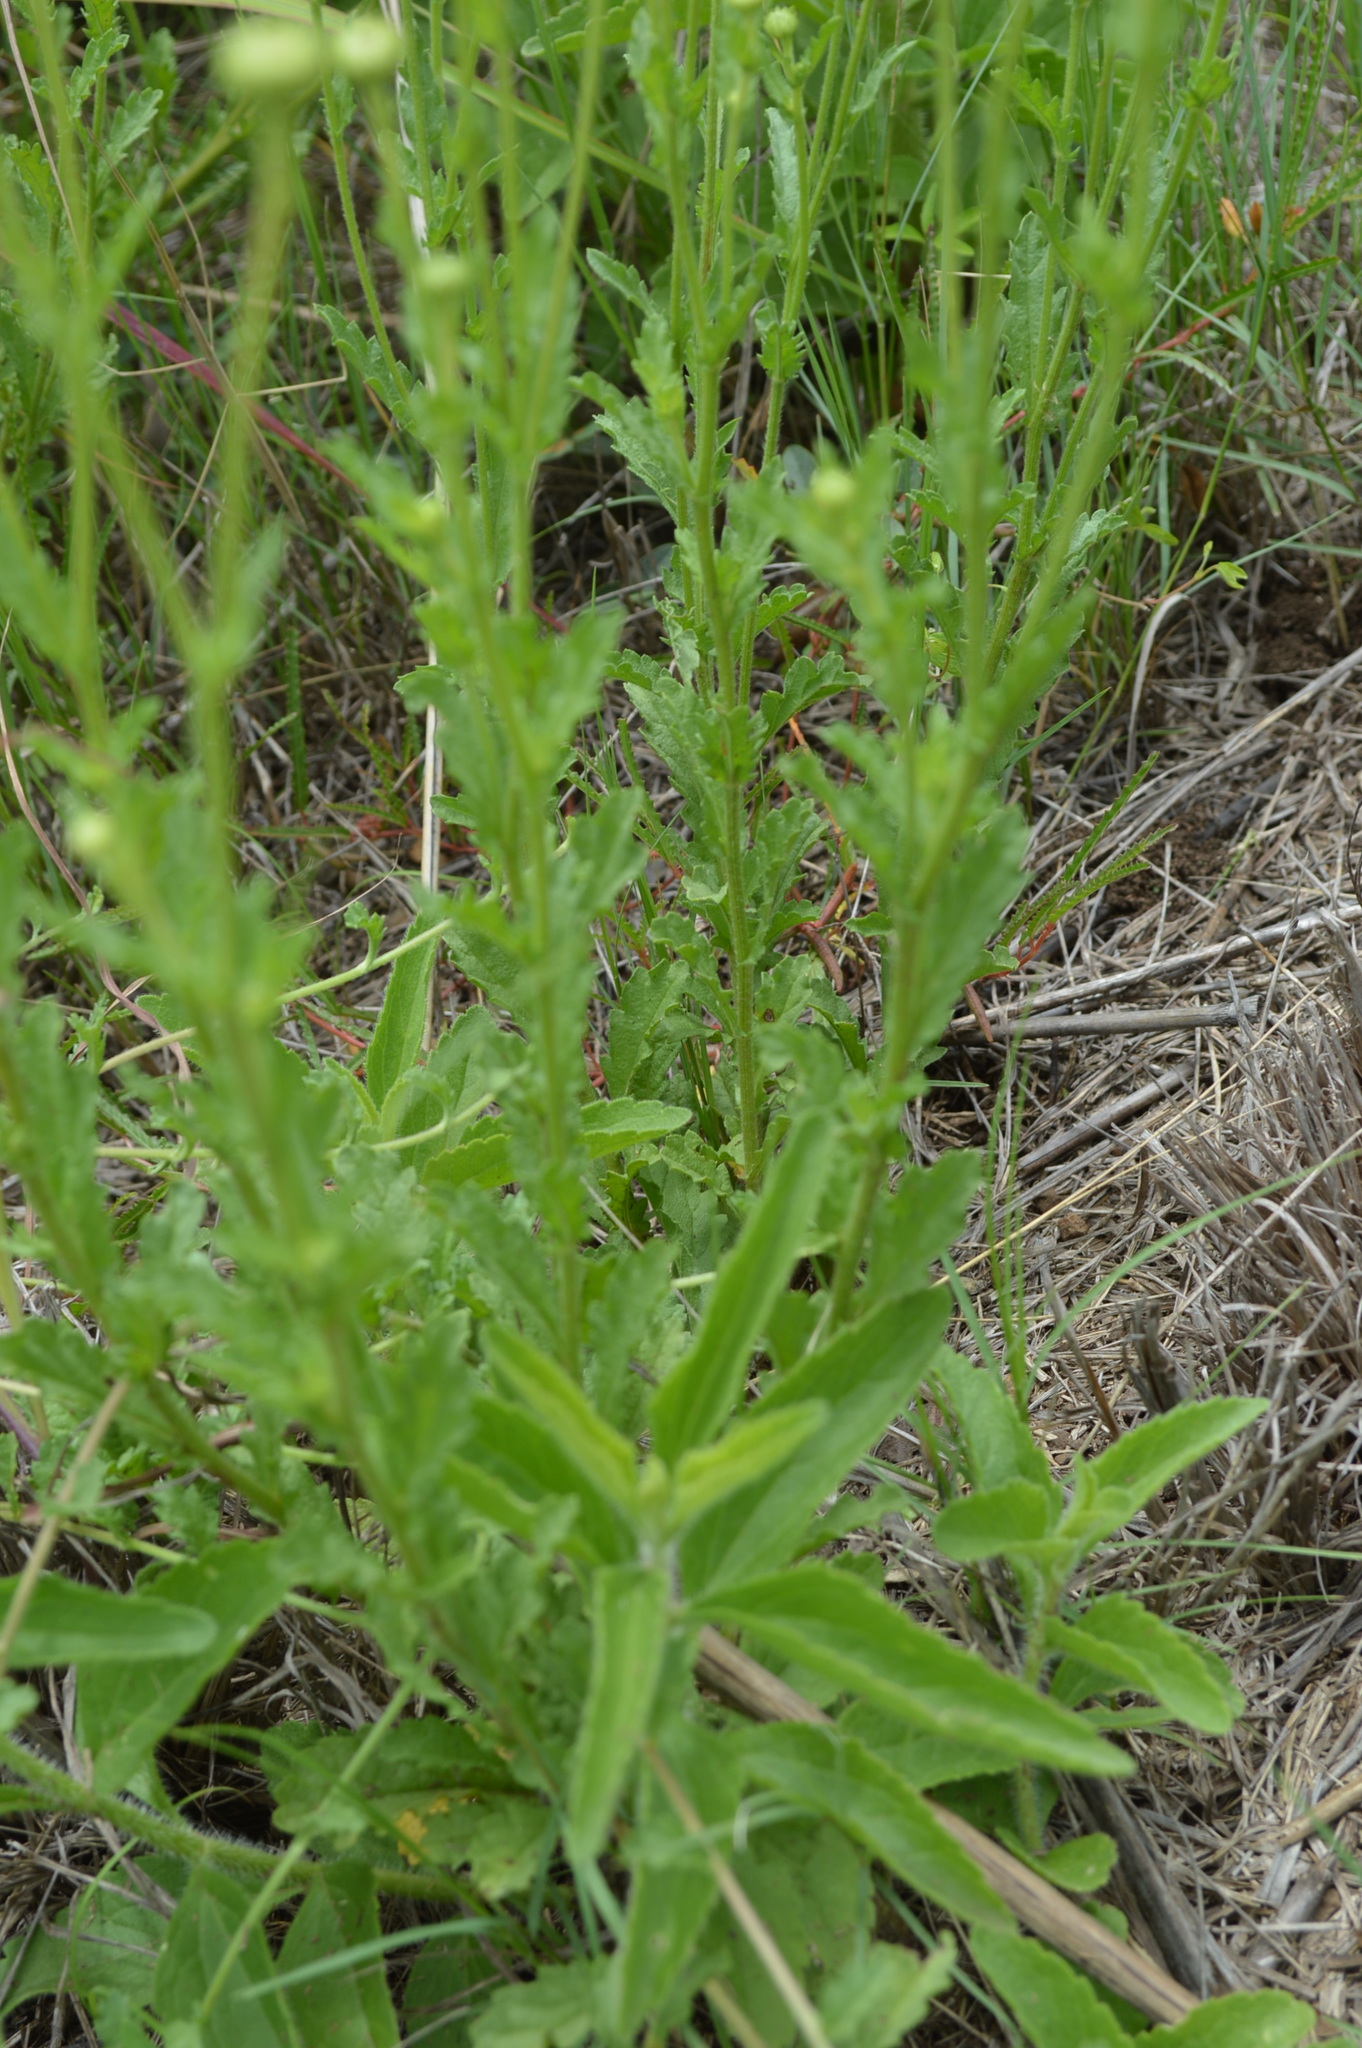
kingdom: Plantae
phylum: Tracheophyta
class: Magnoliopsida
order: Asterales
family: Asteraceae
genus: Nidorella
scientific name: Nidorella podocephala
